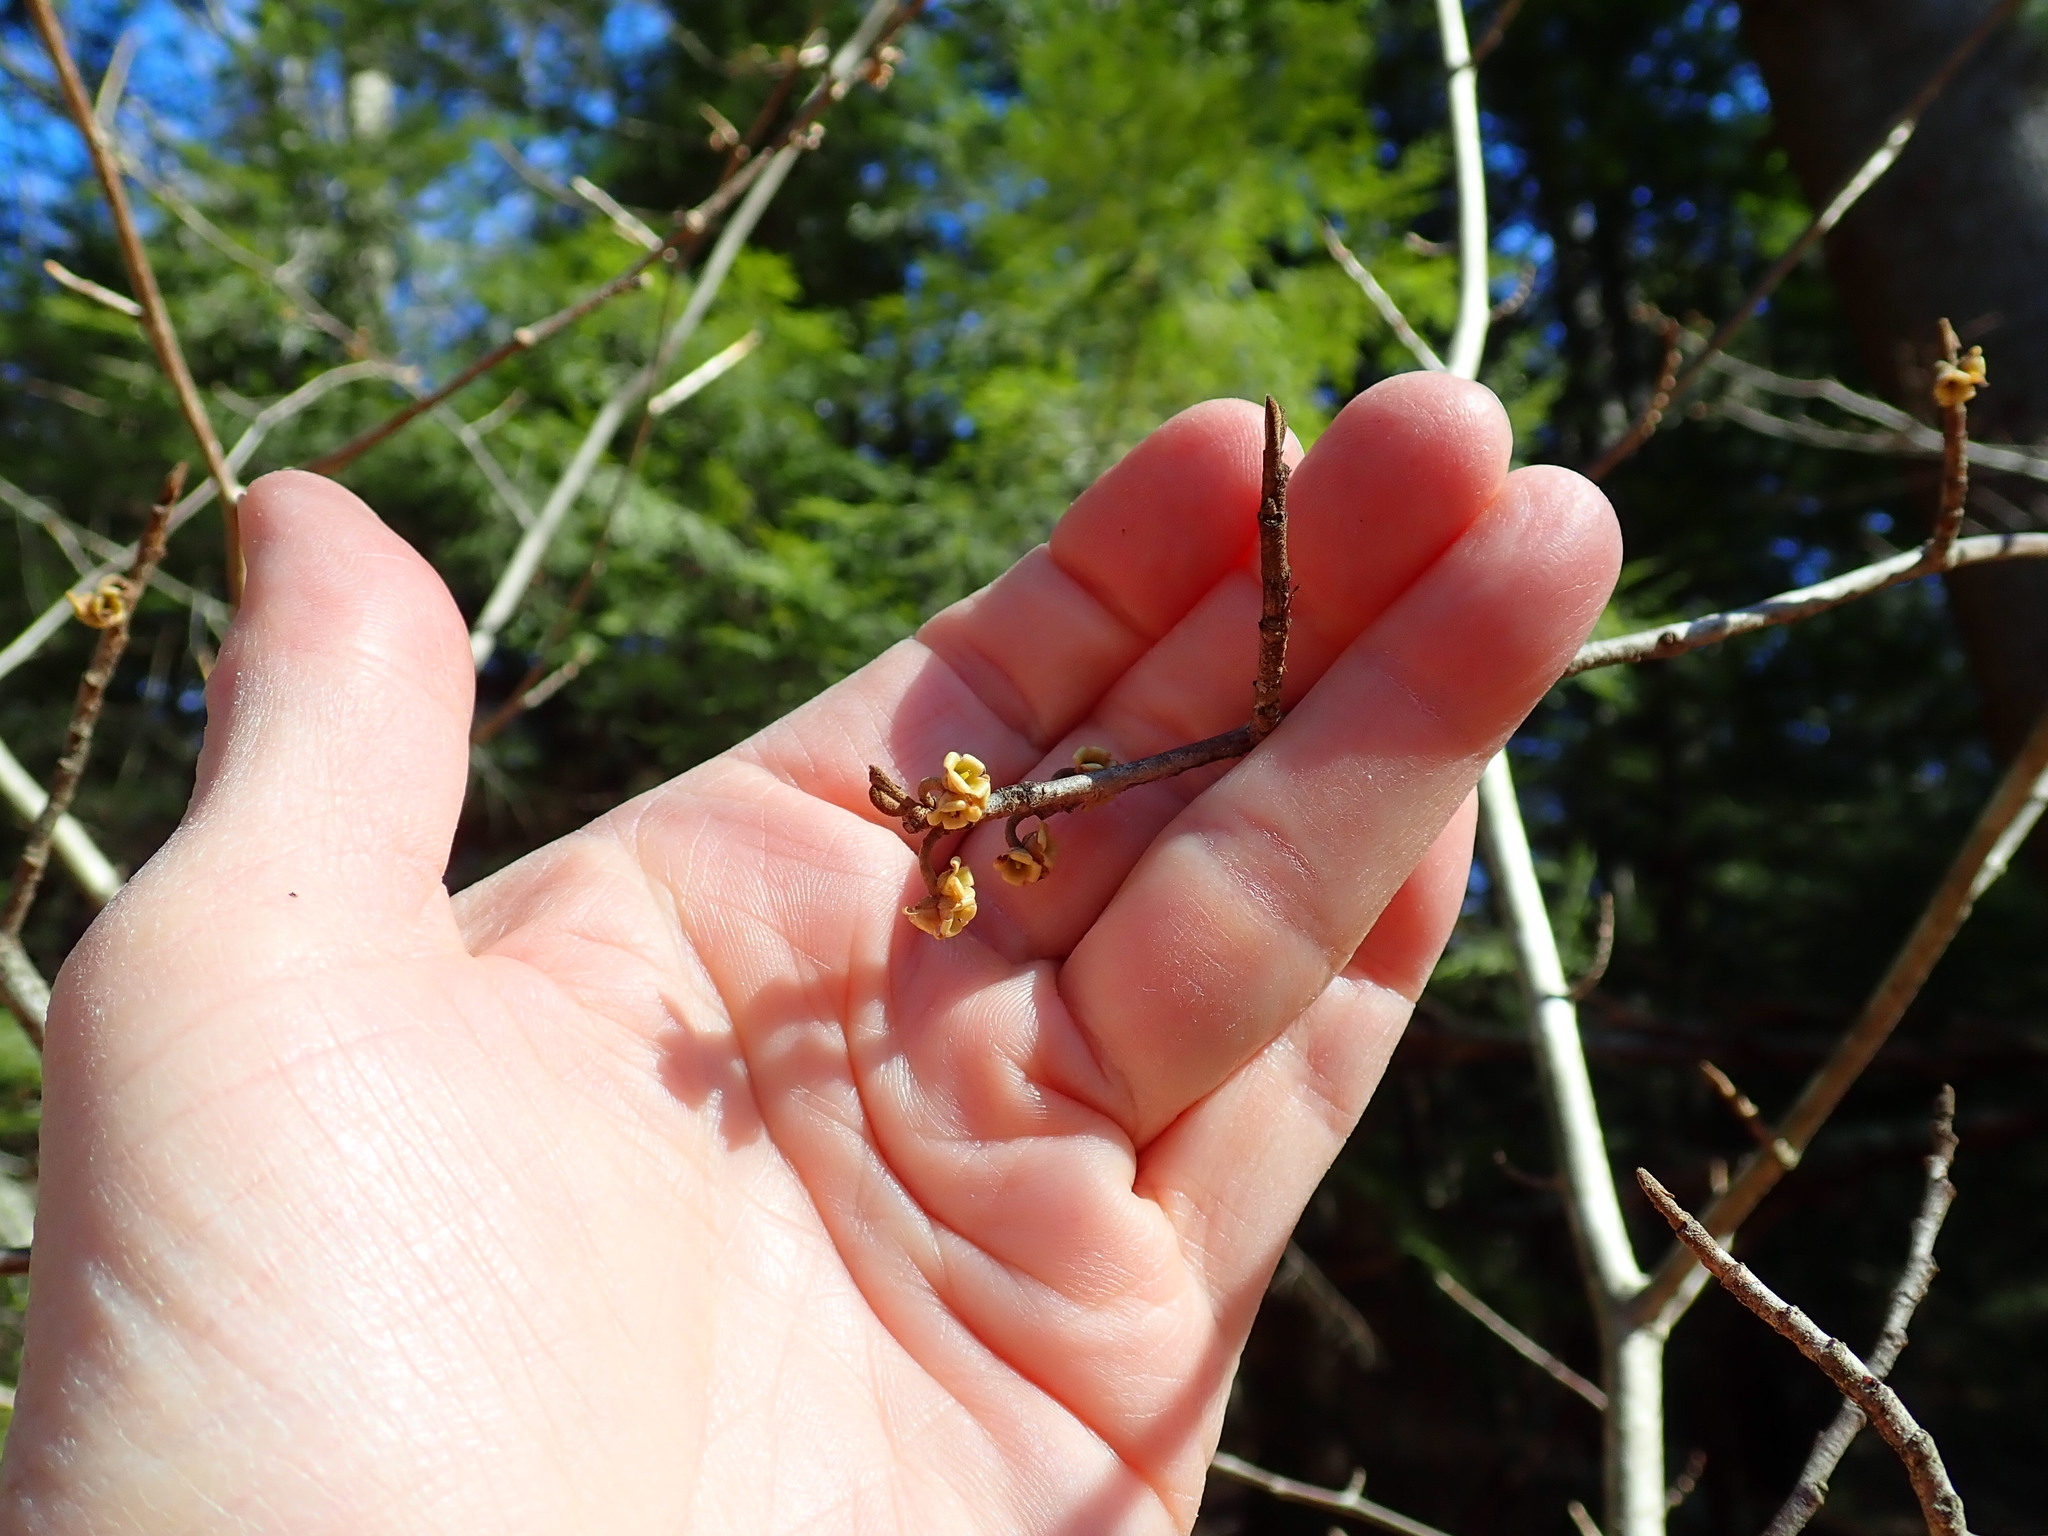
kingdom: Plantae
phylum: Tracheophyta
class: Magnoliopsida
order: Saxifragales
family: Hamamelidaceae
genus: Hamamelis
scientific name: Hamamelis virginiana
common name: Witch-hazel
